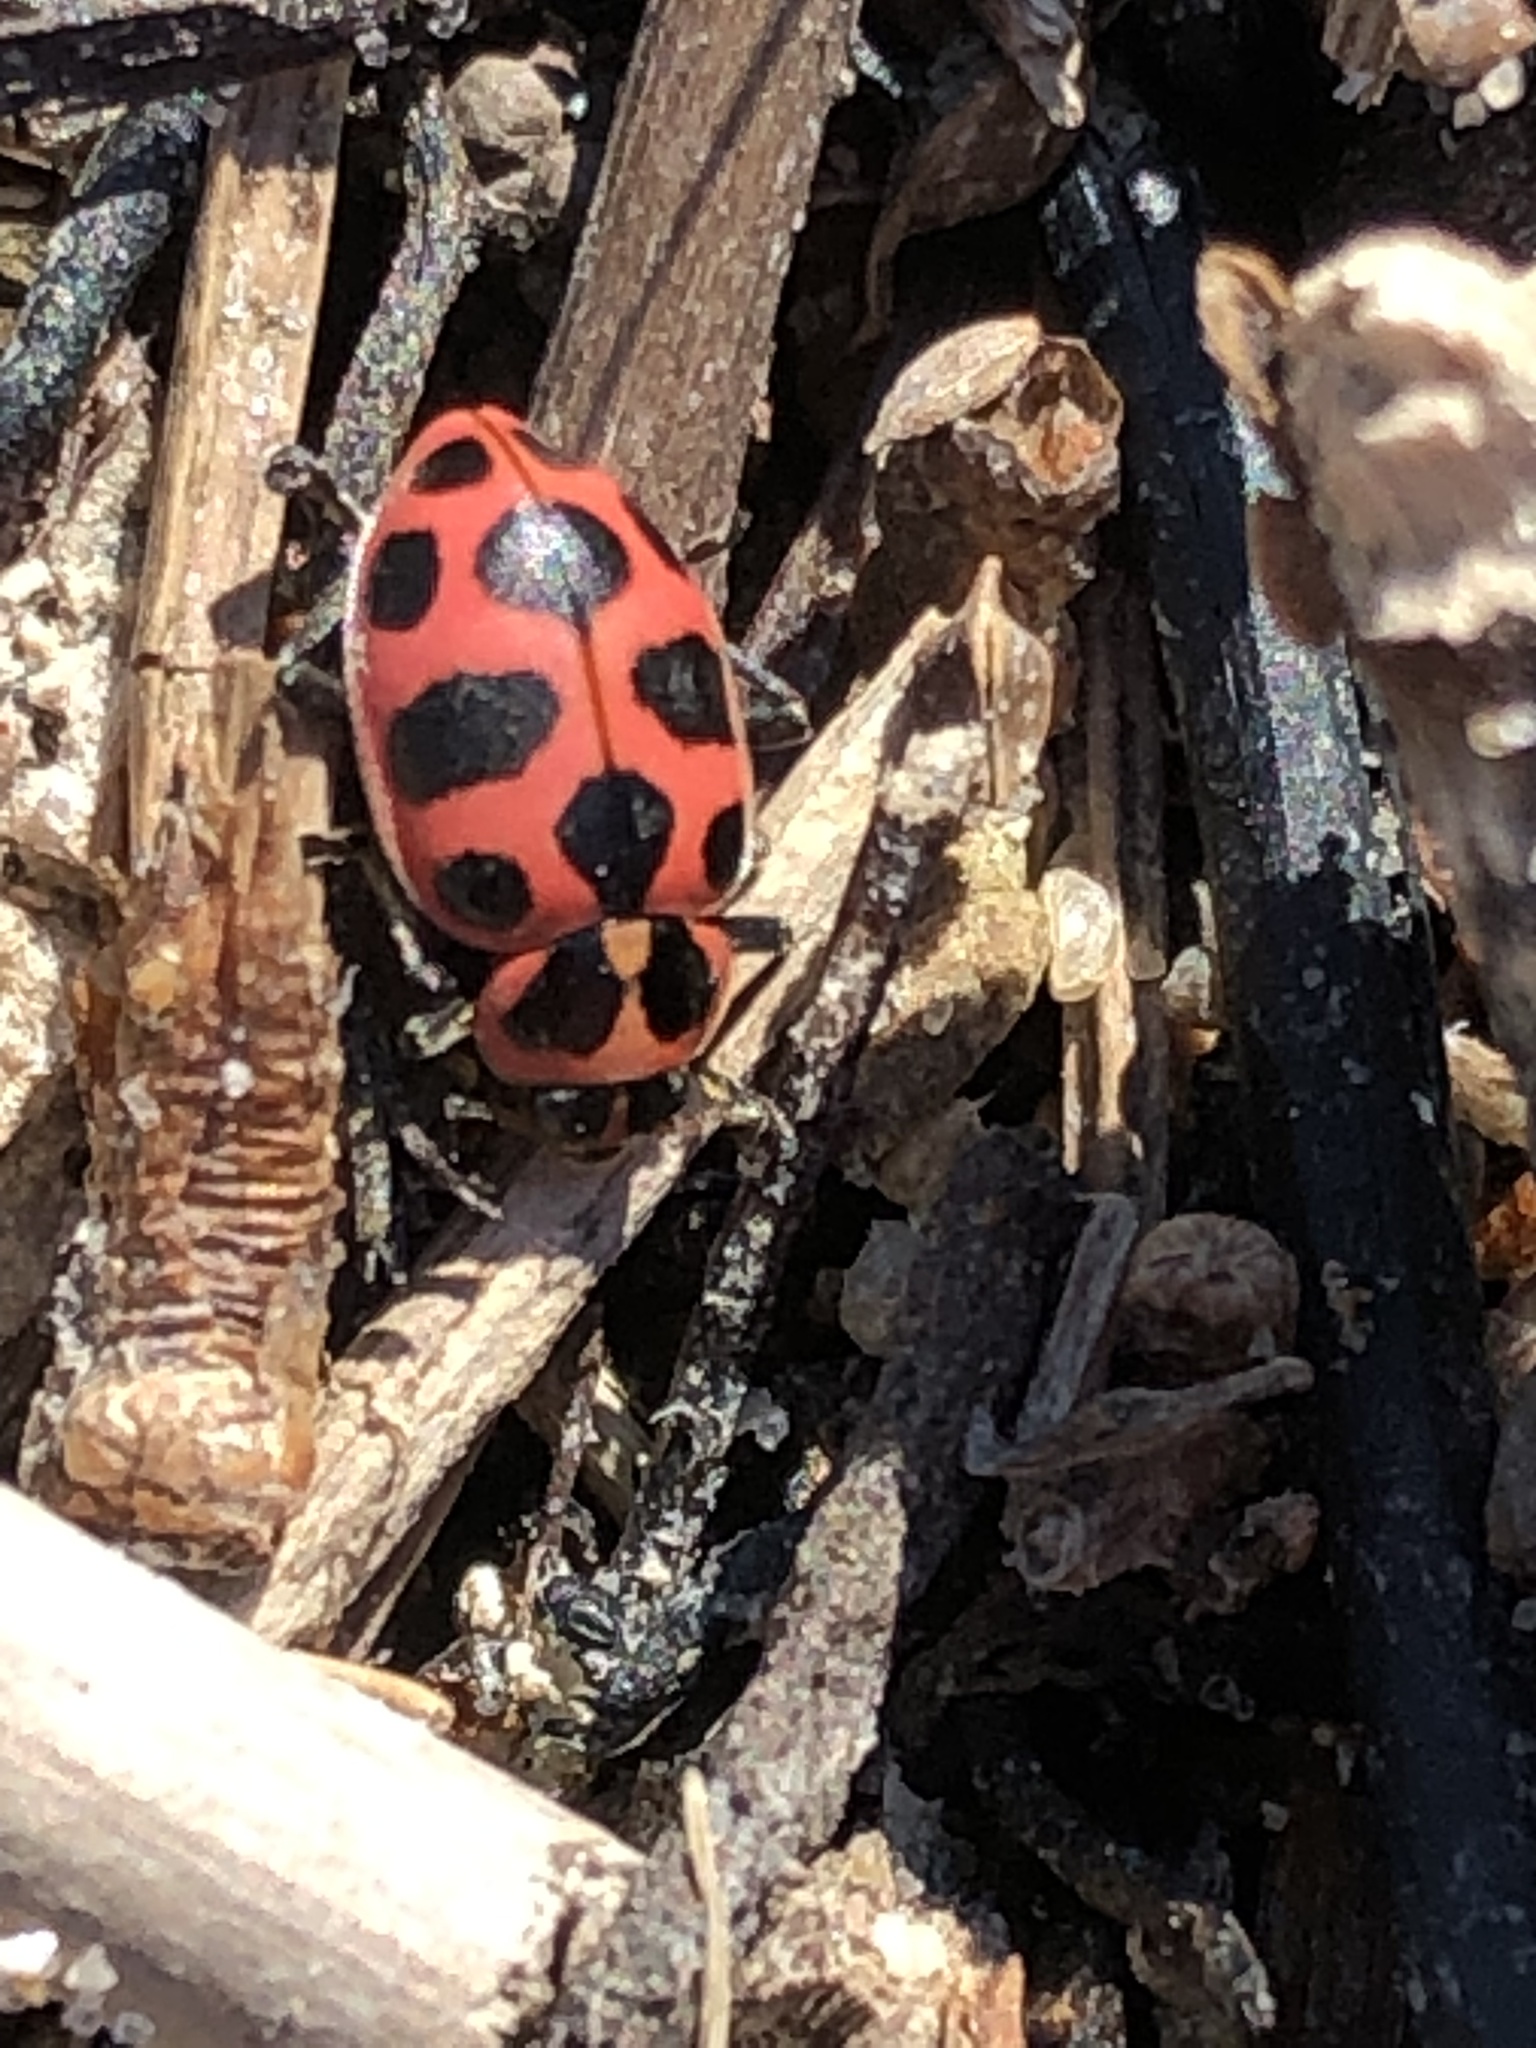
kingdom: Animalia
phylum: Arthropoda
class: Insecta
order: Coleoptera
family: Coccinellidae
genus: Coleomegilla
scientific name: Coleomegilla maculata
